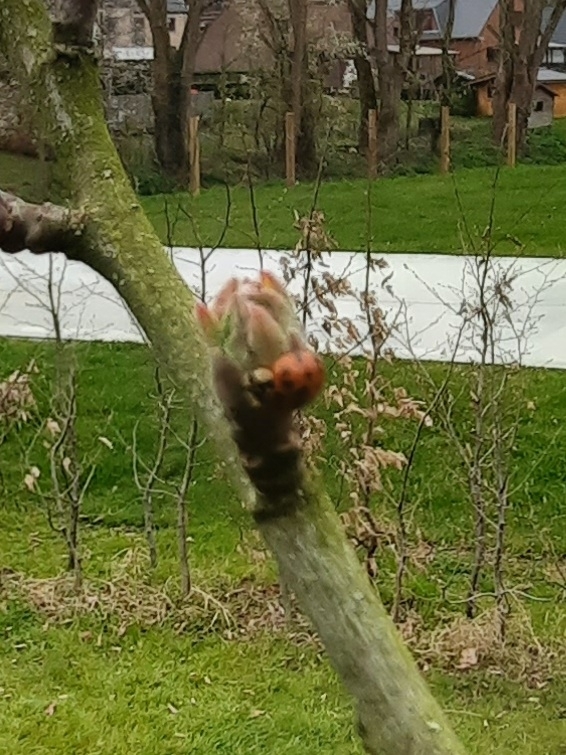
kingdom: Animalia
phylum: Arthropoda
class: Insecta
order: Coleoptera
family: Coccinellidae
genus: Harmonia
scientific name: Harmonia axyridis
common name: Harlequin ladybird
